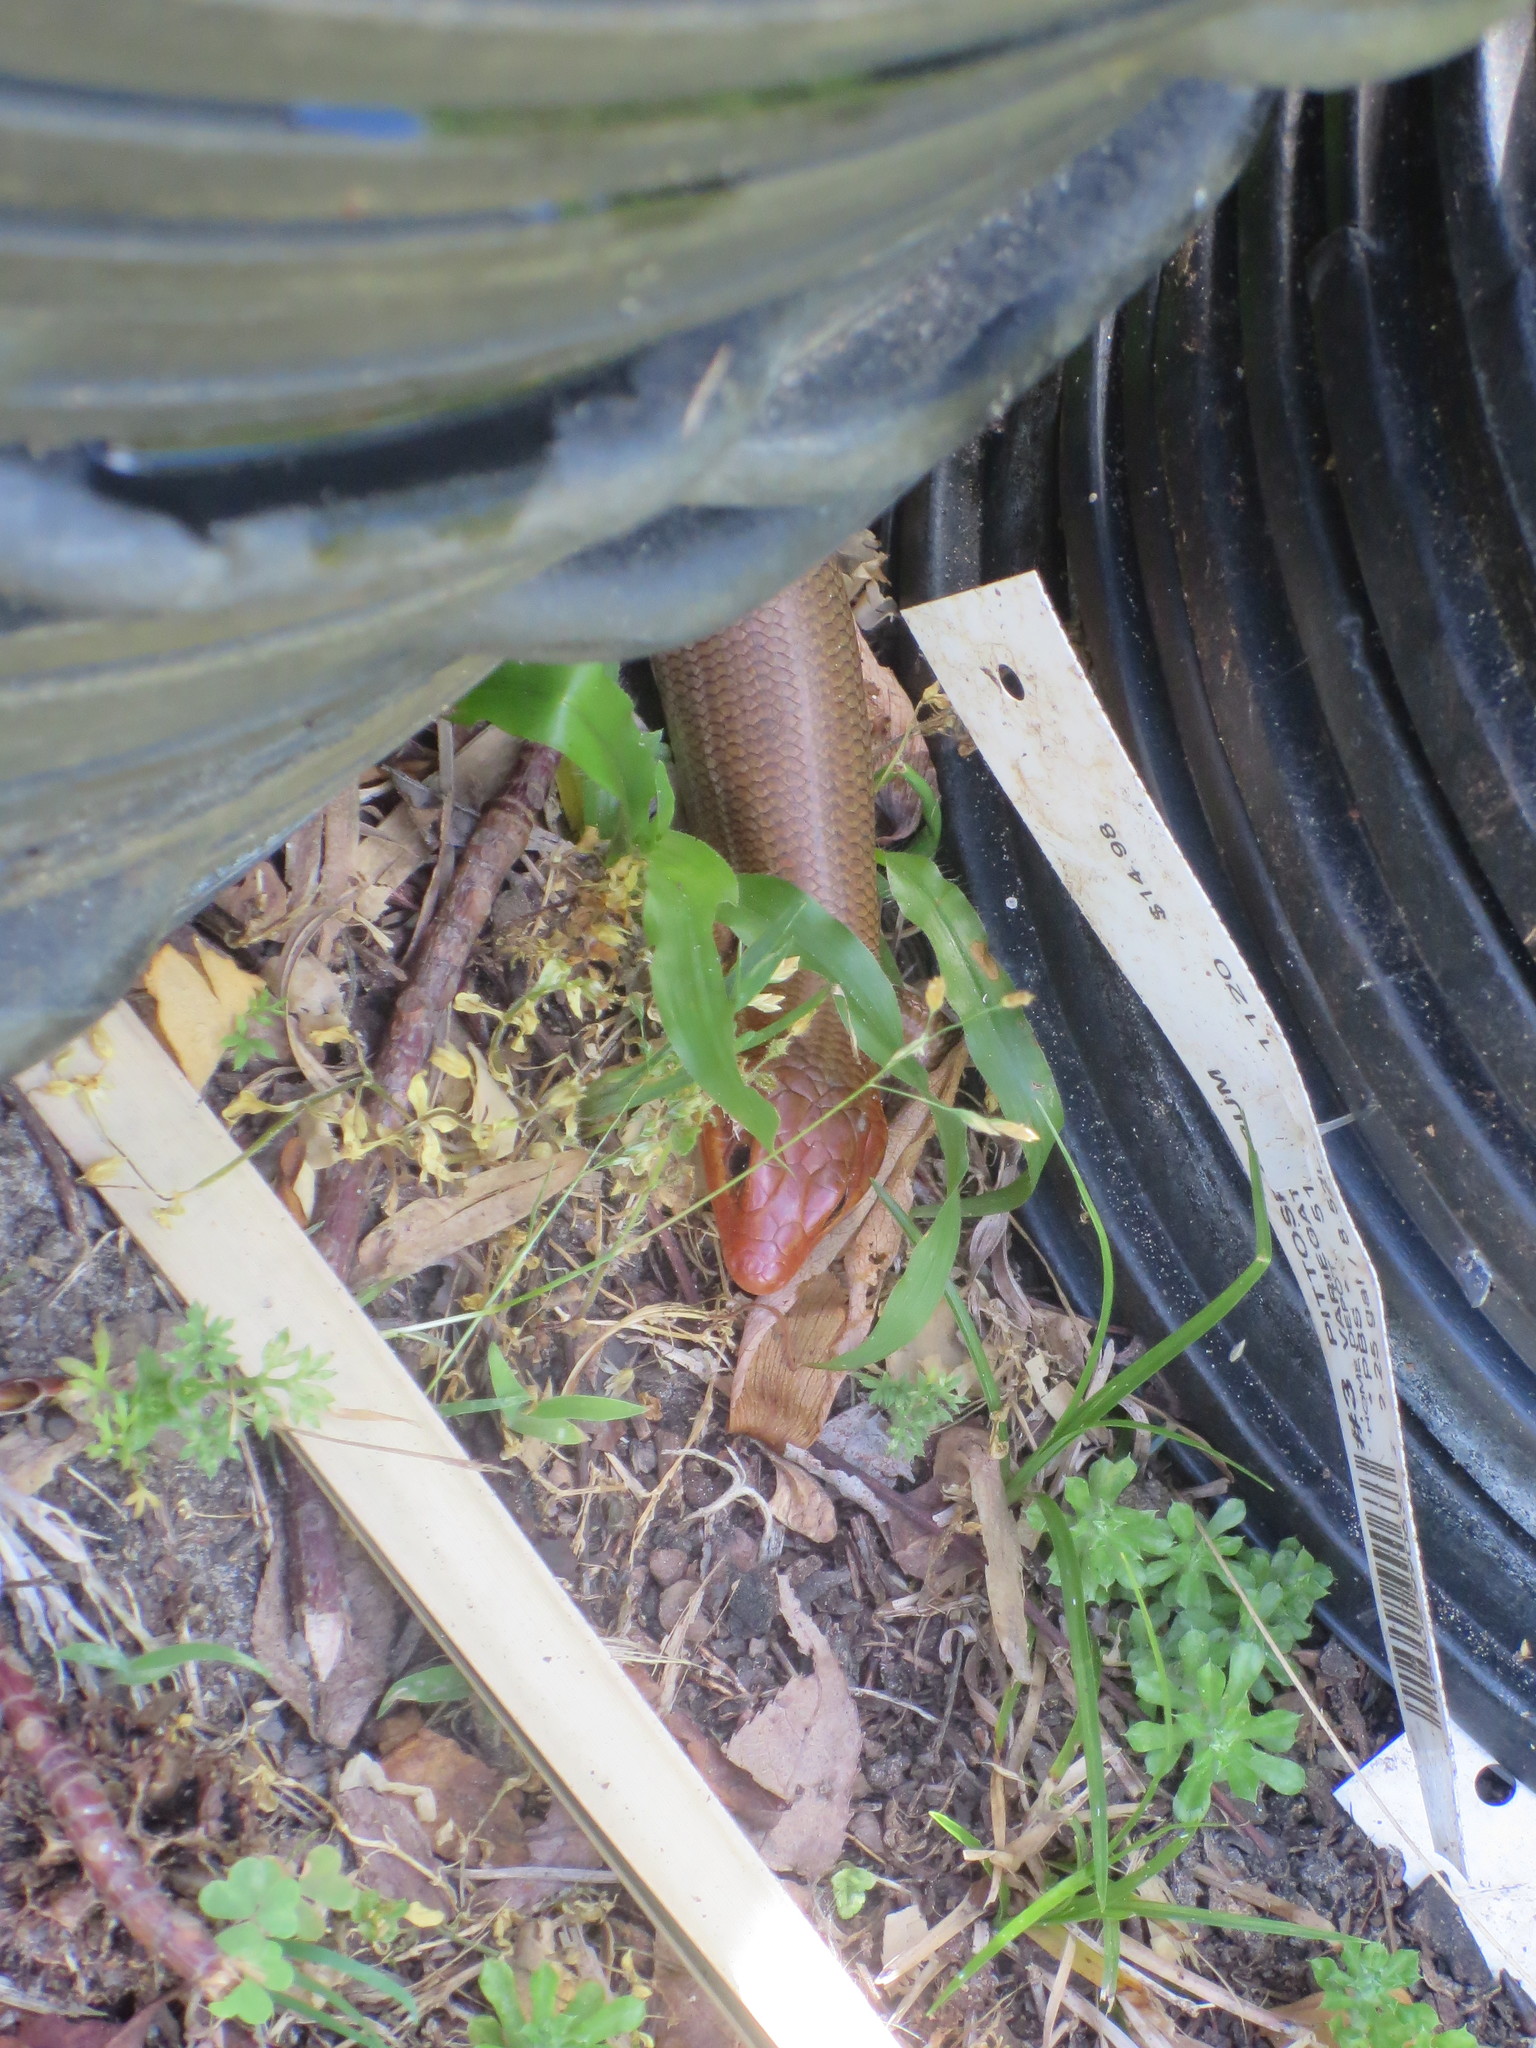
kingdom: Animalia
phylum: Chordata
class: Squamata
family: Scincidae
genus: Plestiodon
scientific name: Plestiodon laticeps
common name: Broadhead skink
